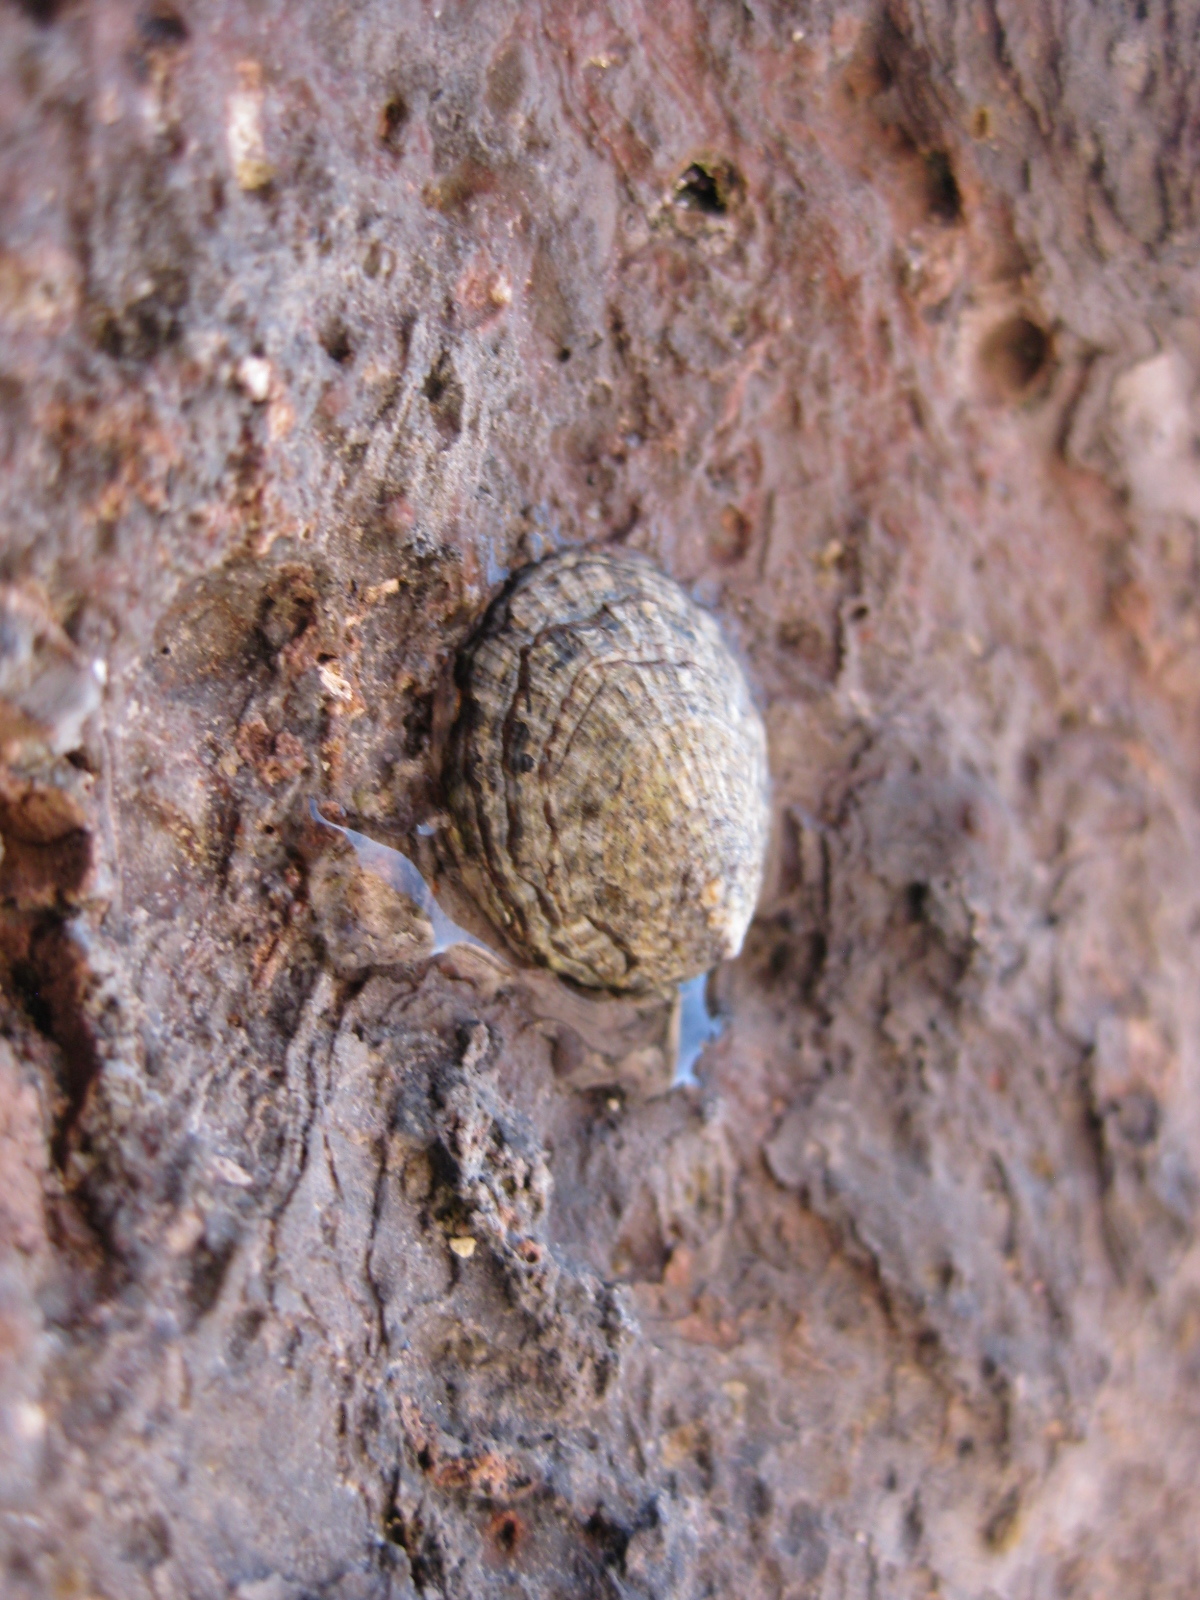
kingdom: Animalia
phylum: Mollusca
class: Gastropoda
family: Lottiidae
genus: Notoacmea
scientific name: Notoacmea pileopsis
